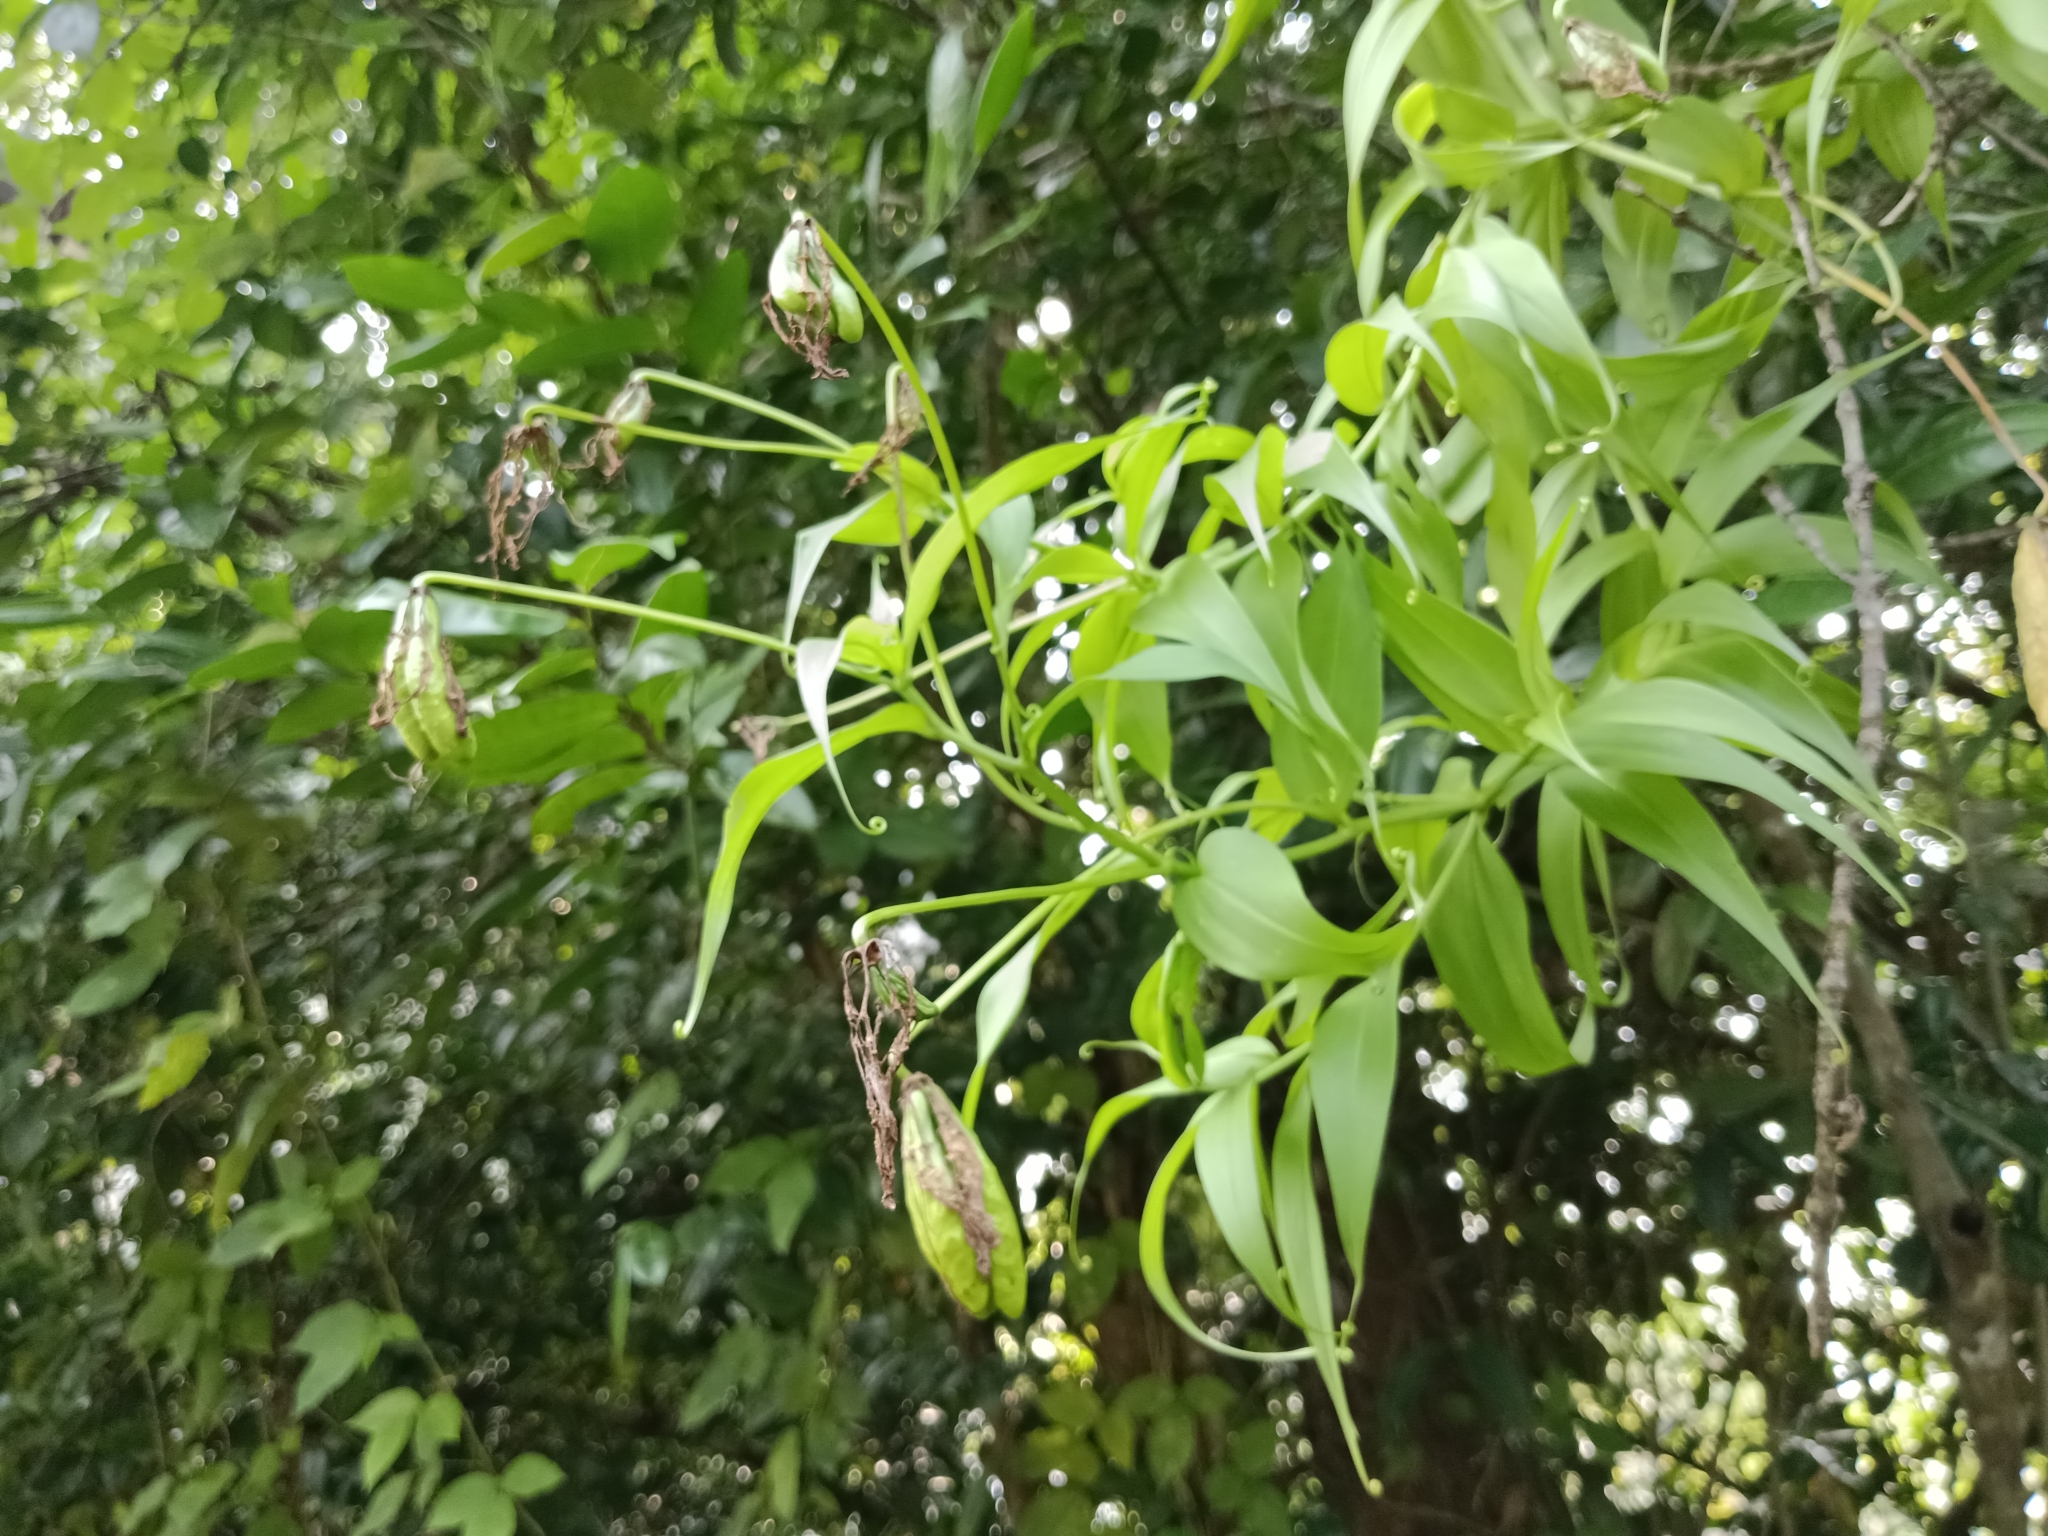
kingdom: Plantae
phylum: Tracheophyta
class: Liliopsida
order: Liliales
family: Colchicaceae
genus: Gloriosa
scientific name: Gloriosa superba
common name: Flame lily
